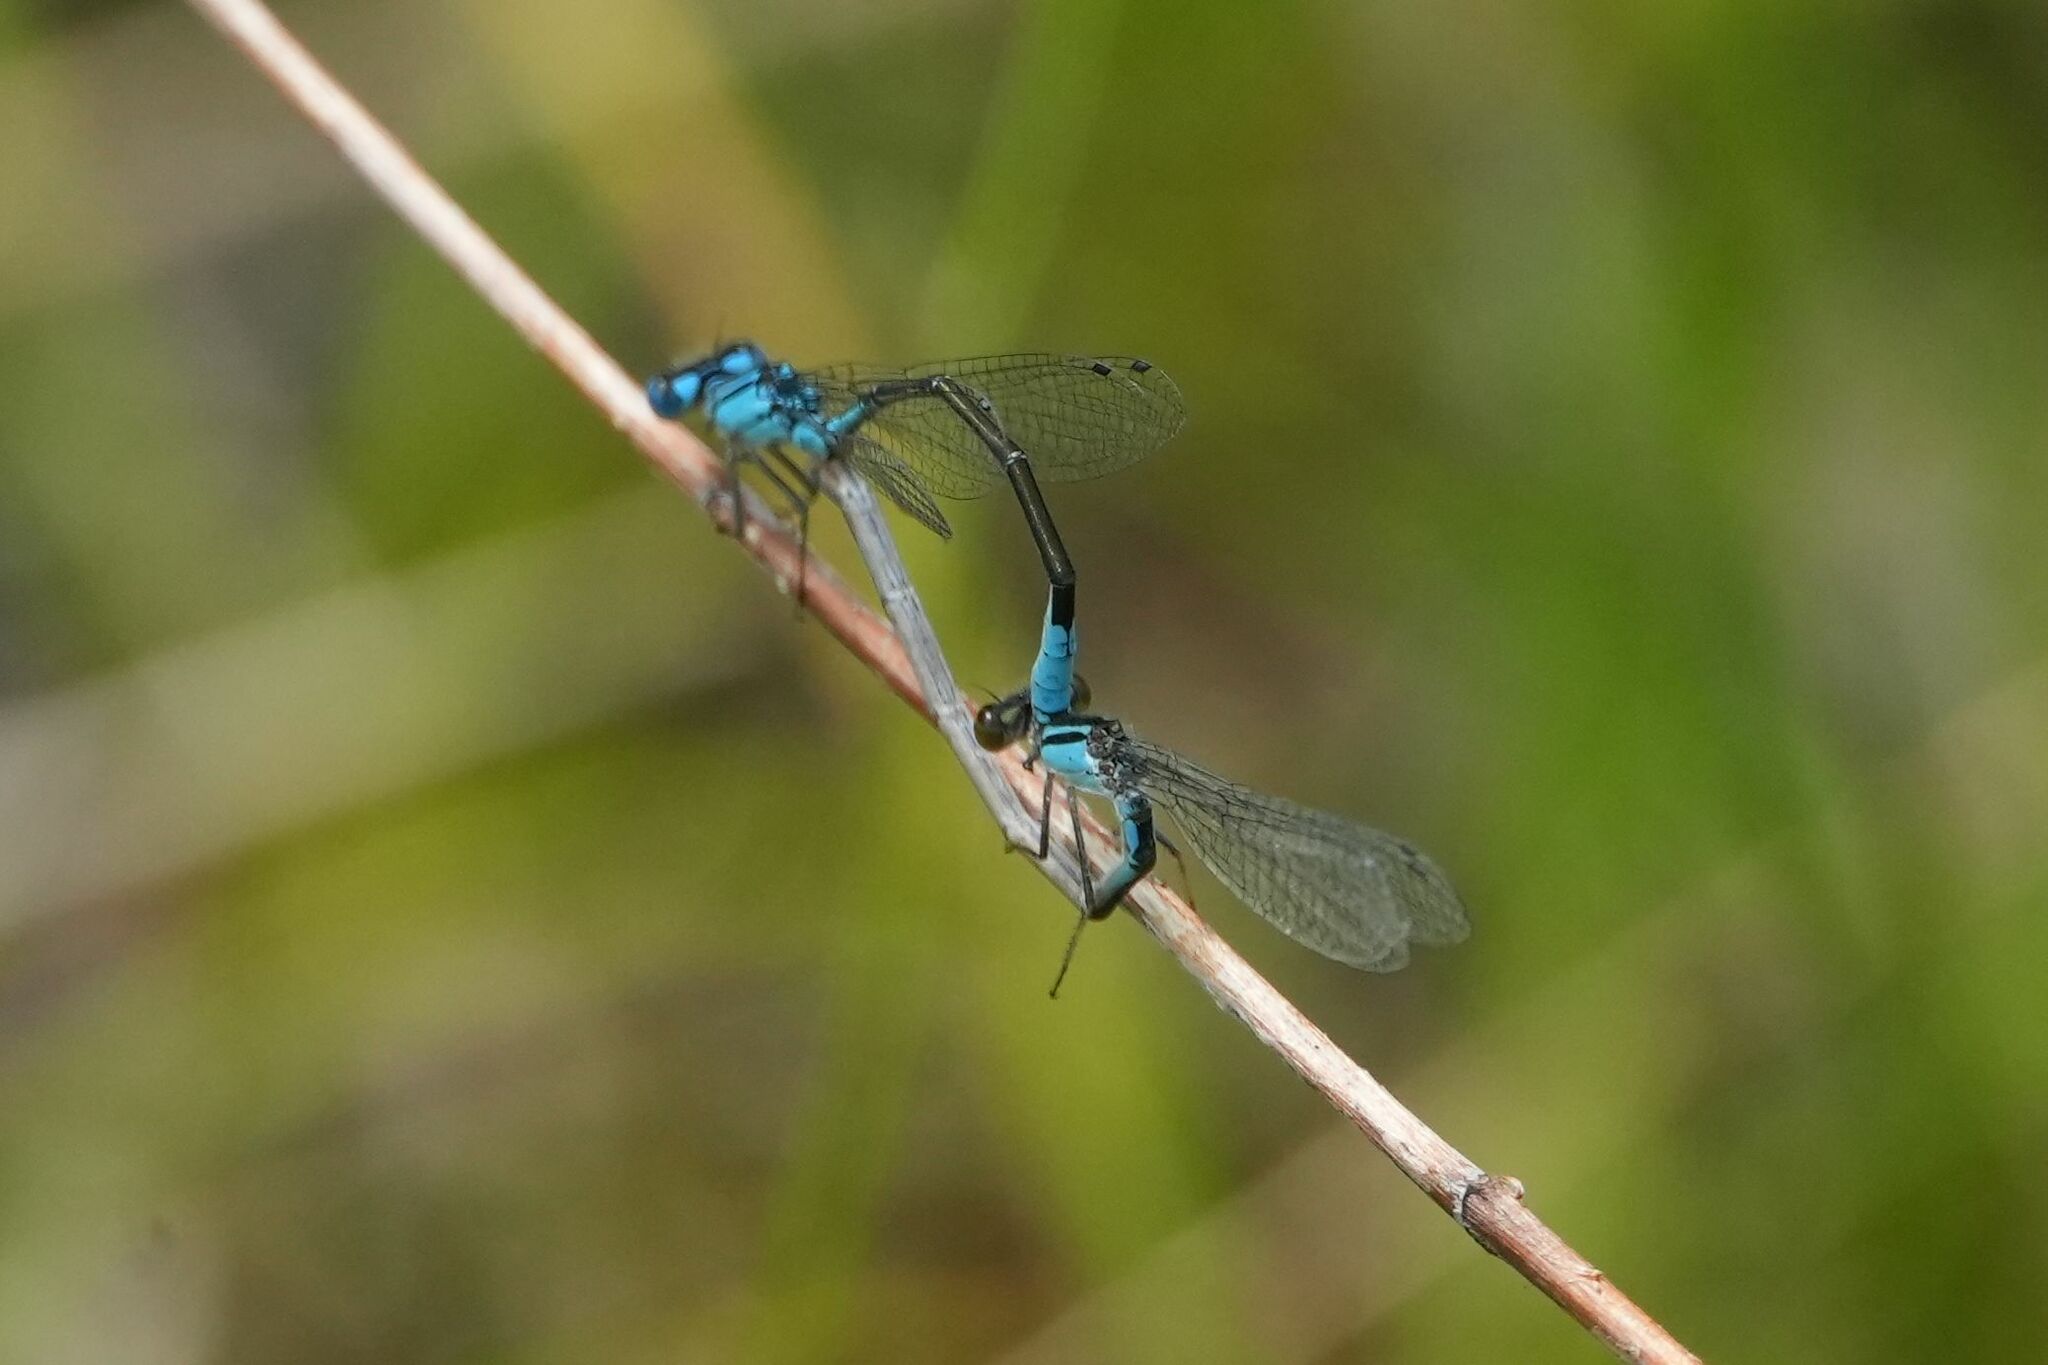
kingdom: Animalia
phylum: Arthropoda
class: Insecta
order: Odonata
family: Coenagrionidae
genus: Enallagma
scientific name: Enallagma aspersum
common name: Azure bluet
